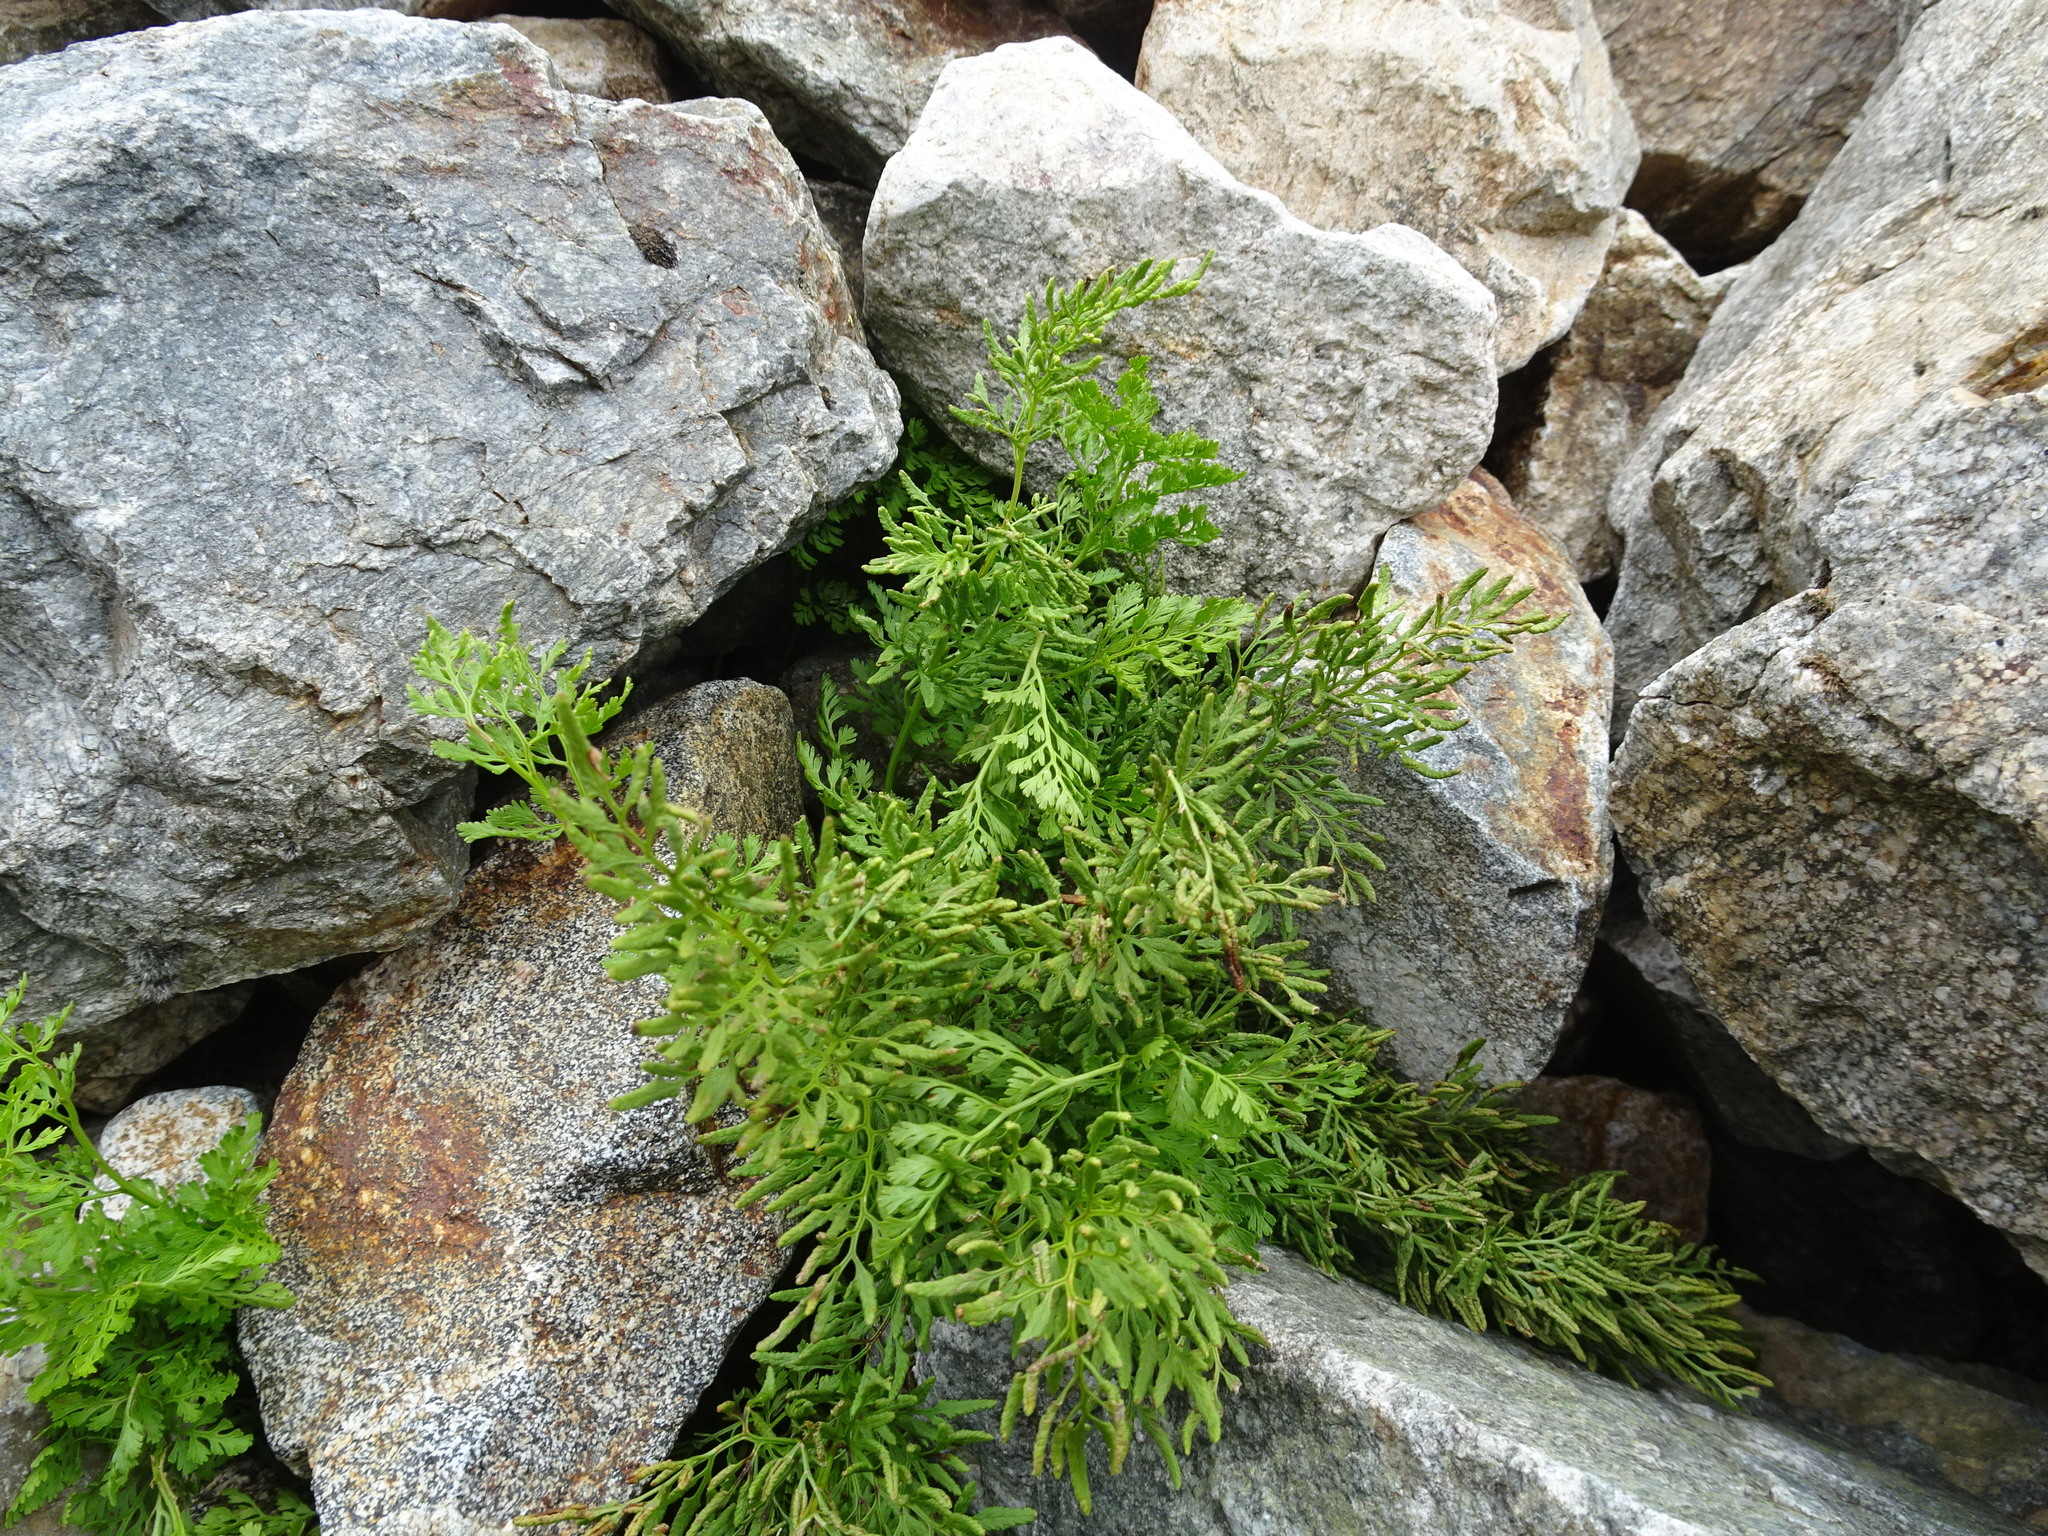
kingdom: Plantae
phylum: Tracheophyta
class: Polypodiopsida
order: Polypodiales
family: Pteridaceae
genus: Cryptogramma
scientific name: Cryptogramma crispa
